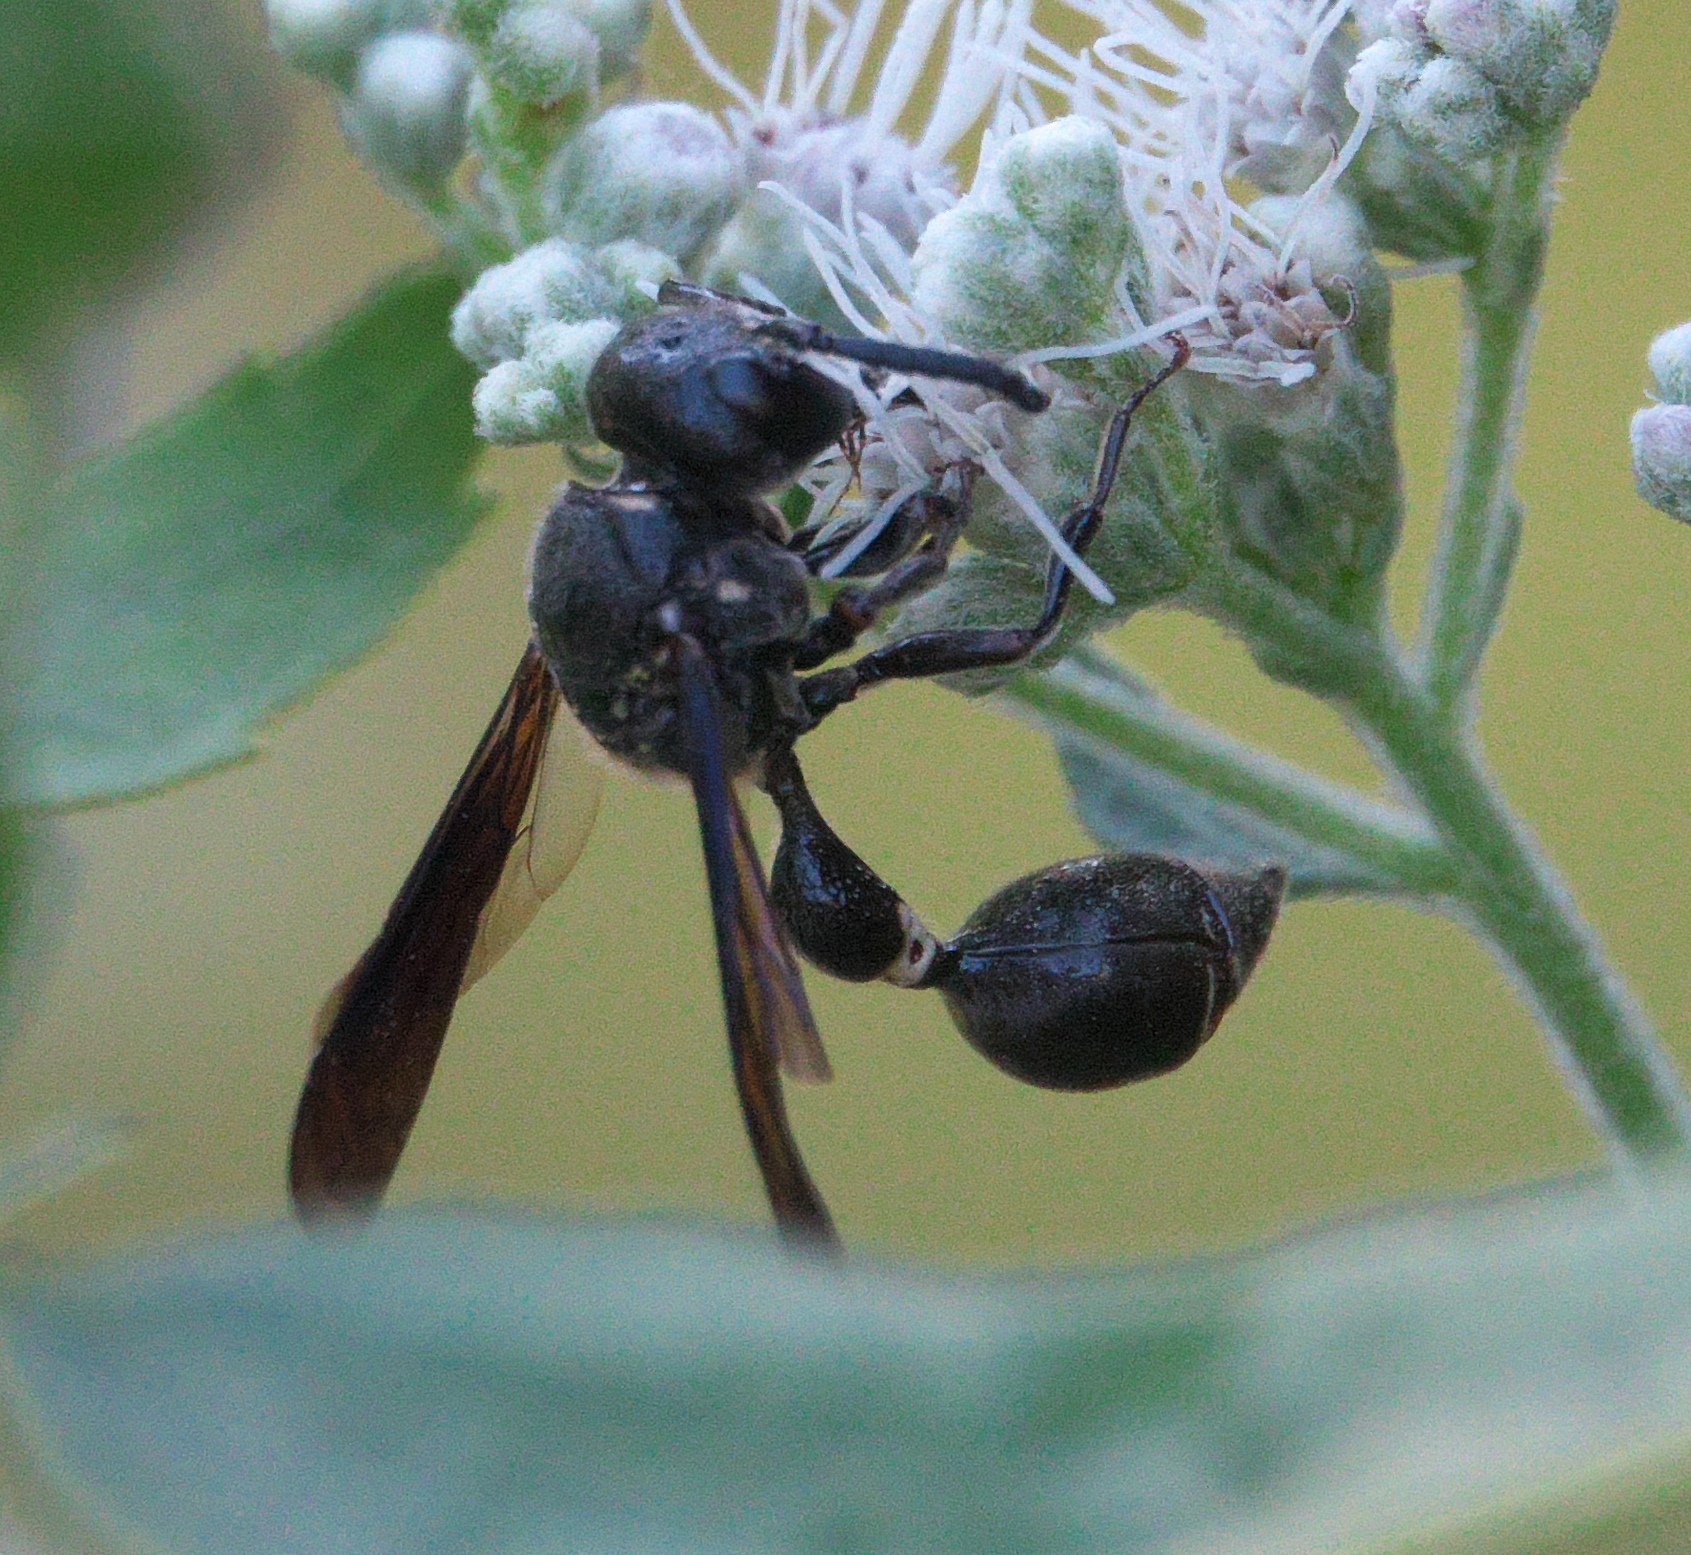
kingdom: Animalia
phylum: Arthropoda
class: Insecta
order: Hymenoptera
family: Eumenidae
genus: Zethus
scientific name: Zethus spinipes
